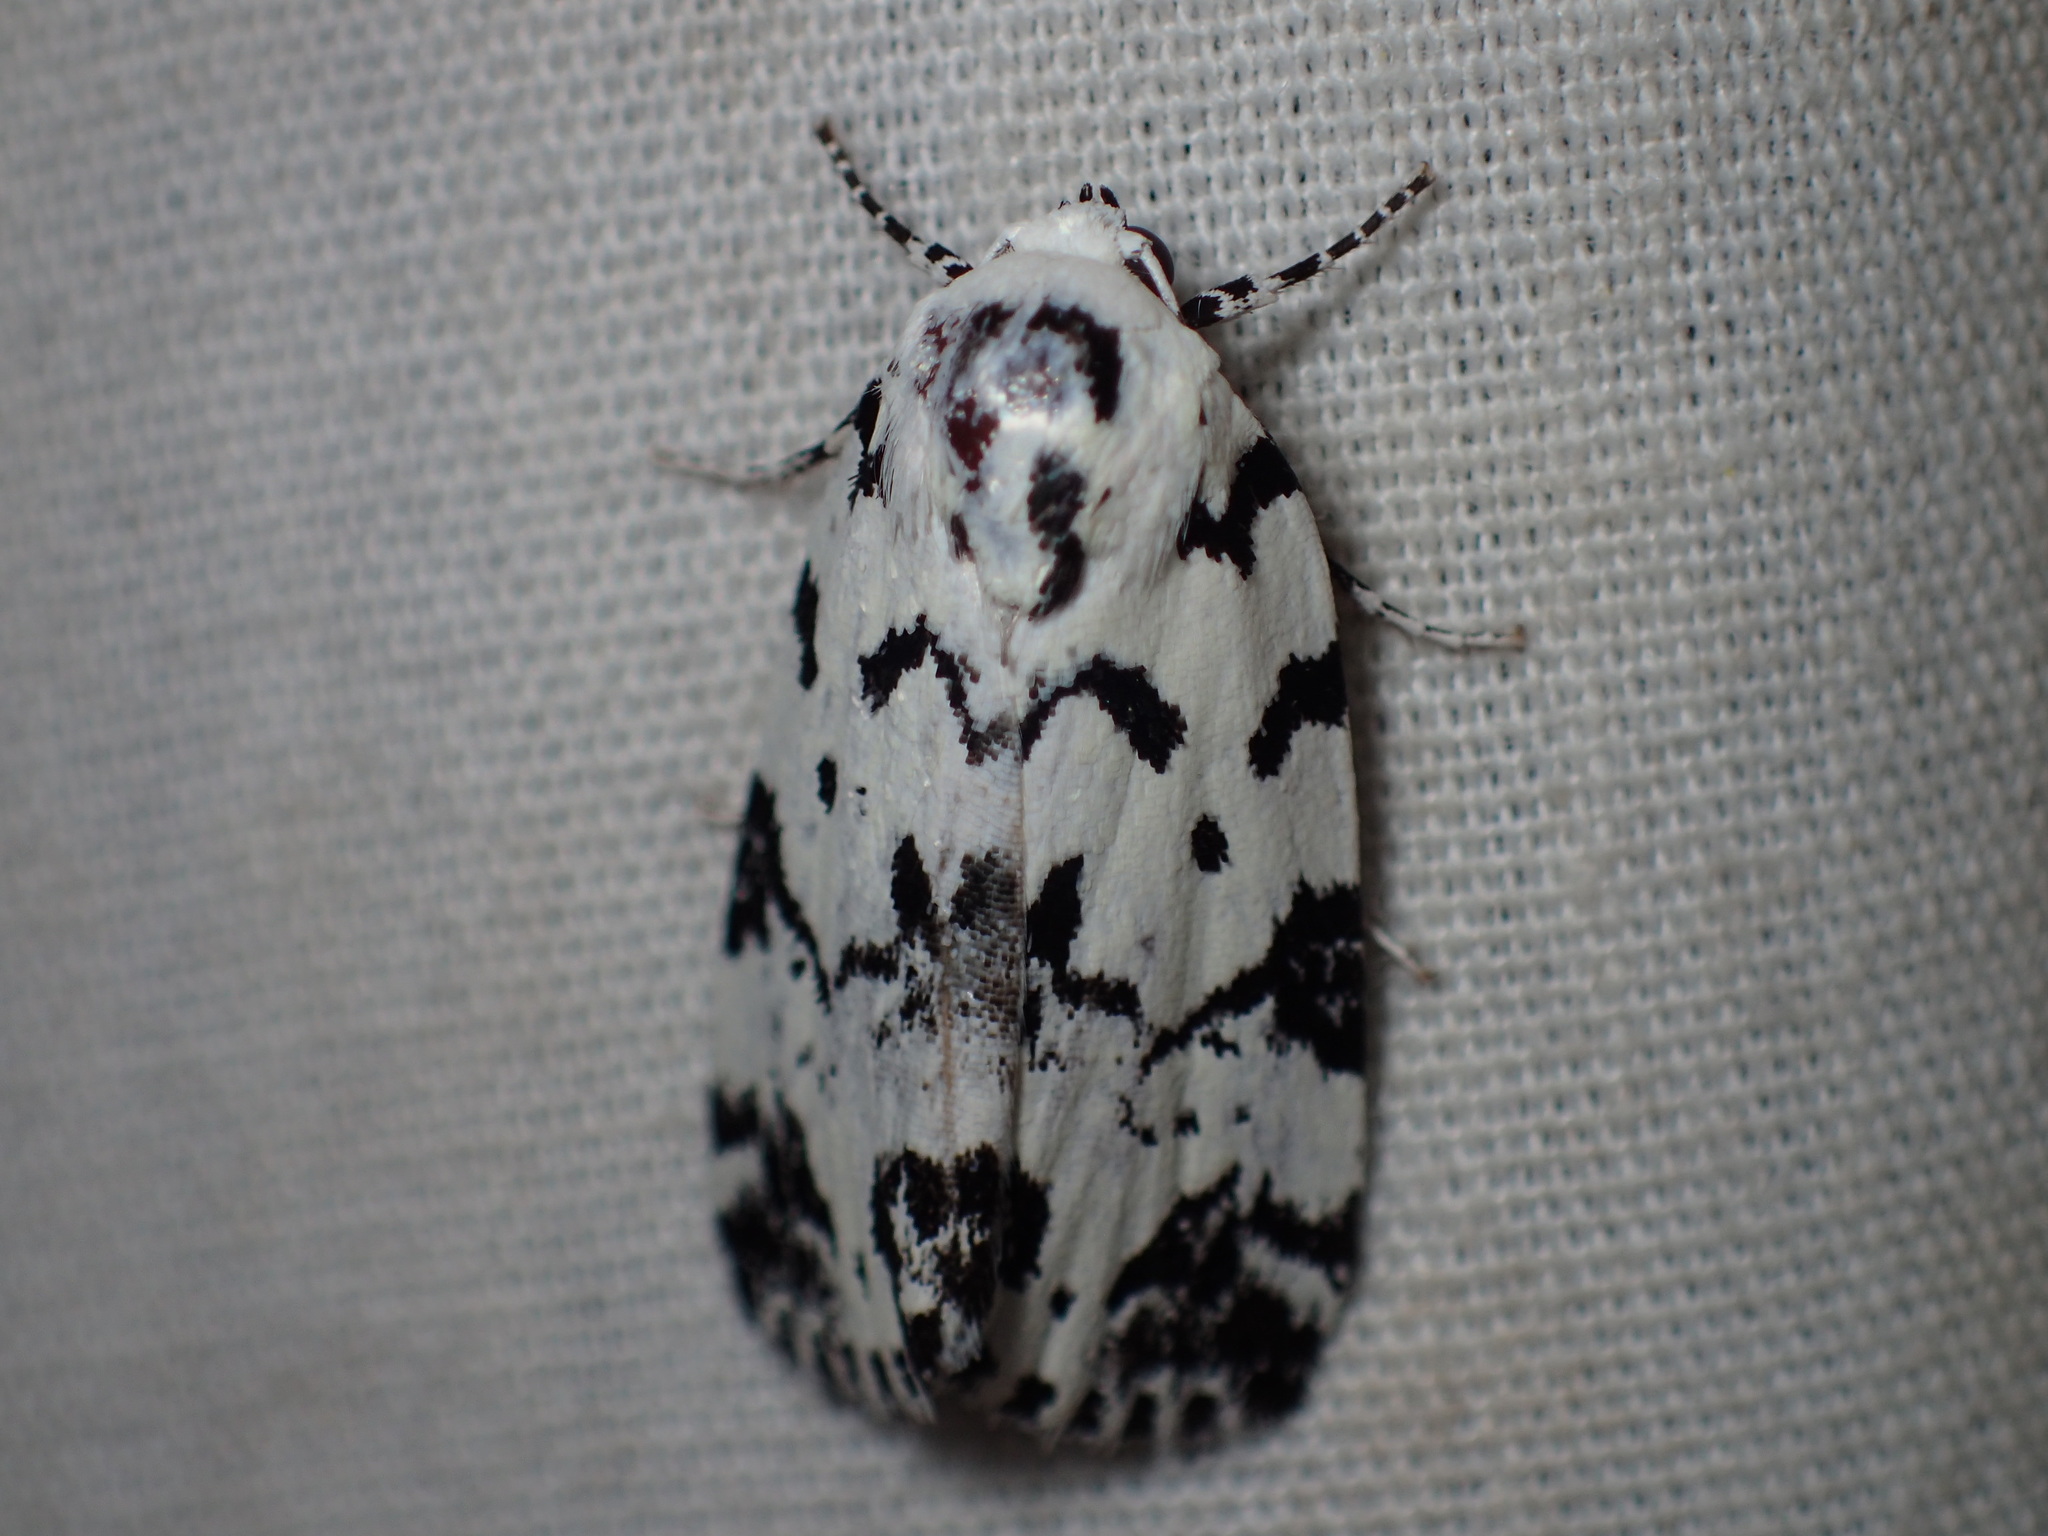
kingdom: Animalia
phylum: Arthropoda
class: Insecta
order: Lepidoptera
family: Noctuidae
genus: Polygrammate
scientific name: Polygrammate hebraeicum
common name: Hebrew moth
